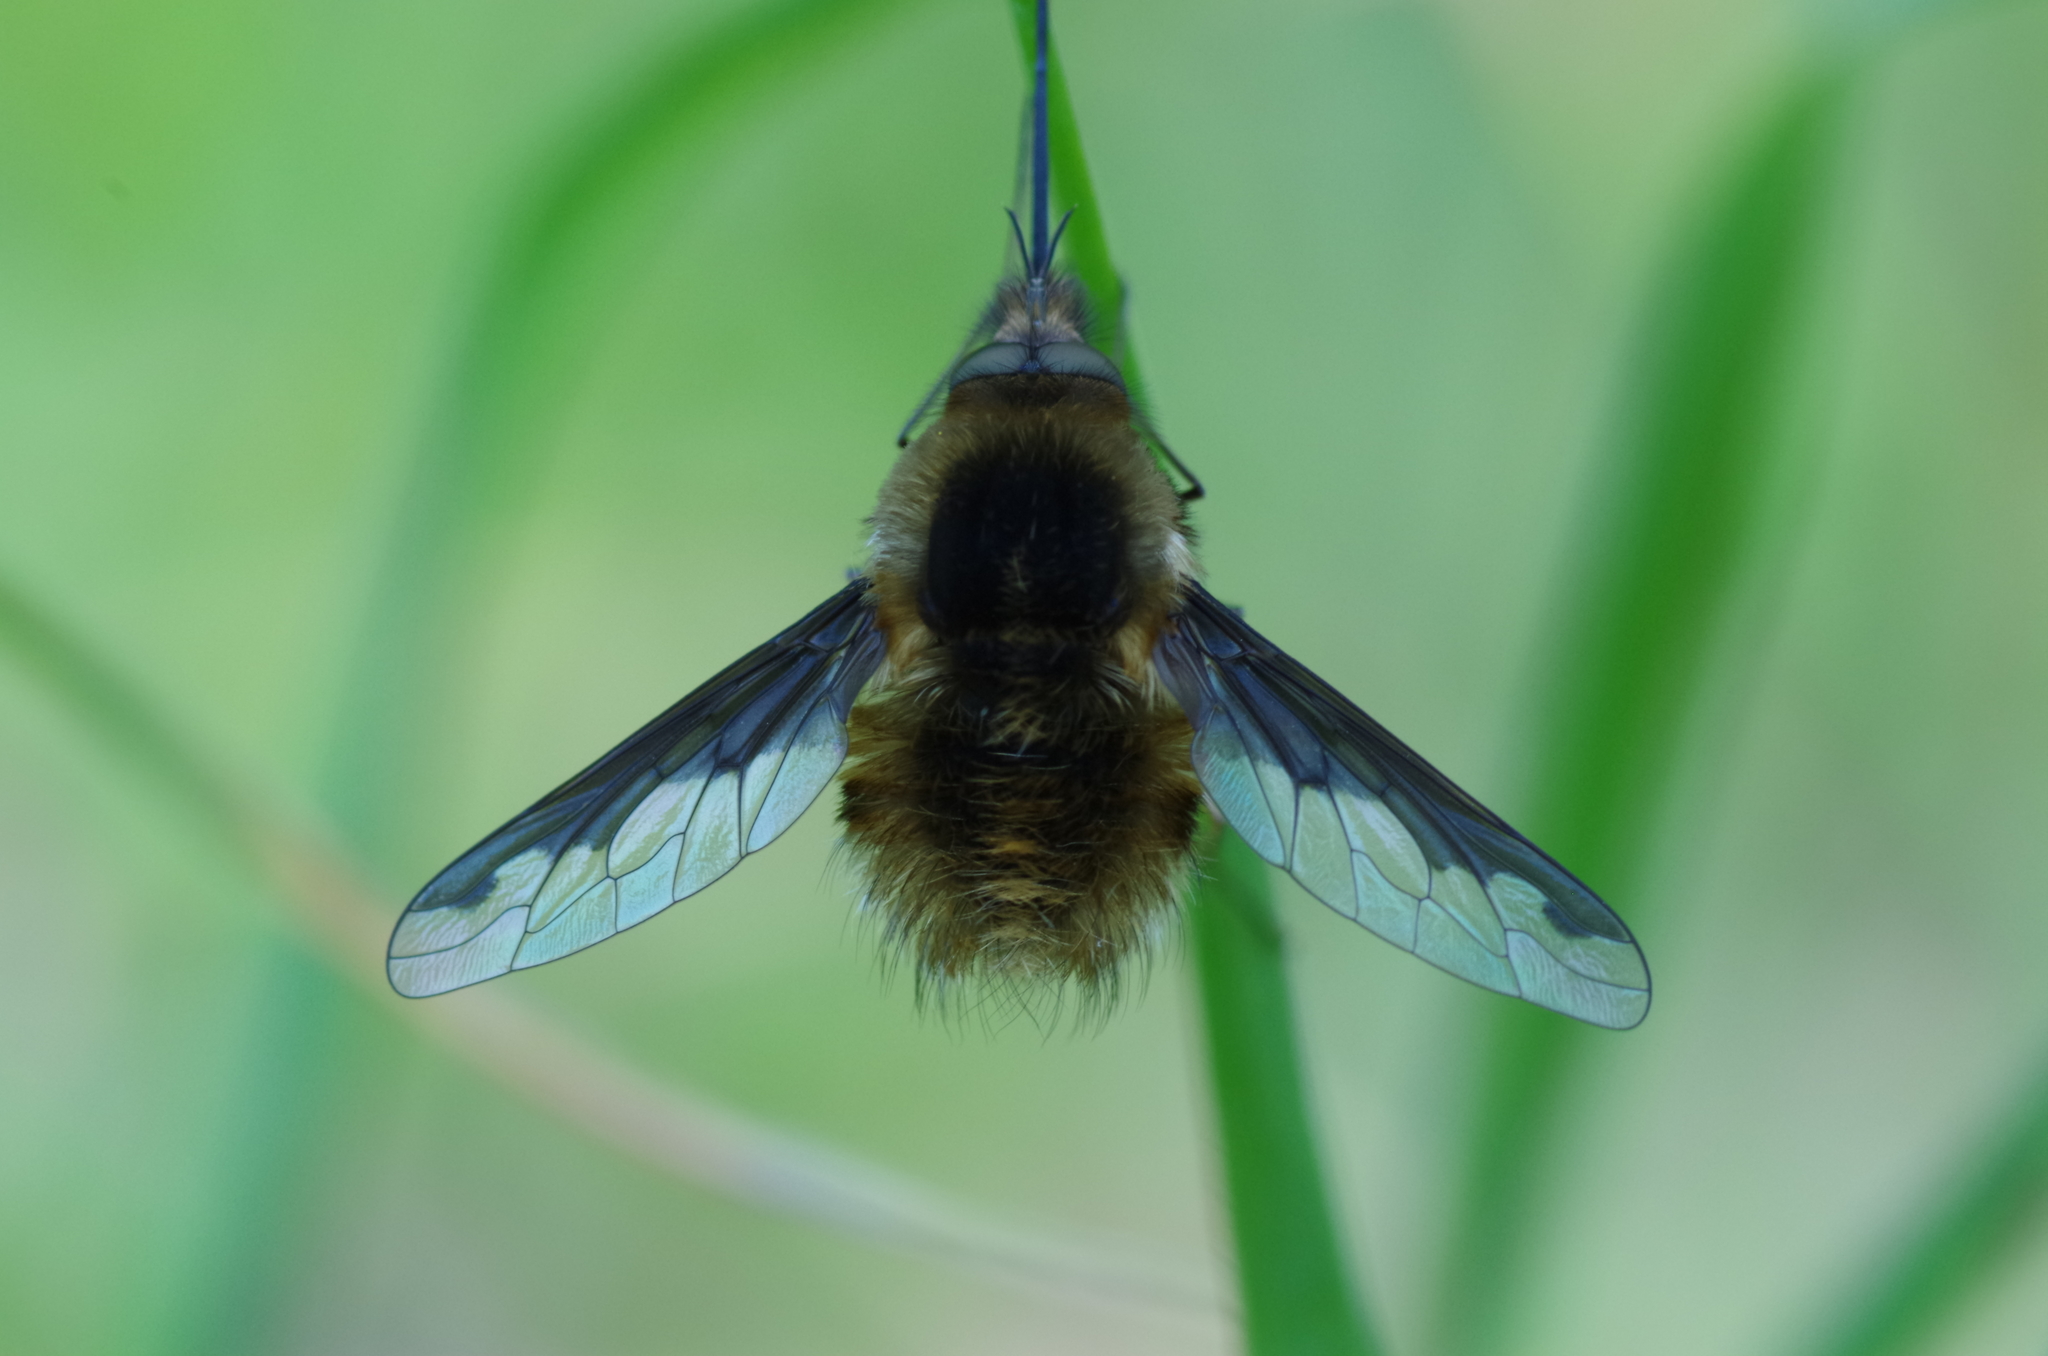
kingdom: Animalia
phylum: Arthropoda
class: Insecta
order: Diptera
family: Bombyliidae
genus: Bombylius
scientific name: Bombylius major
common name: Bee fly
